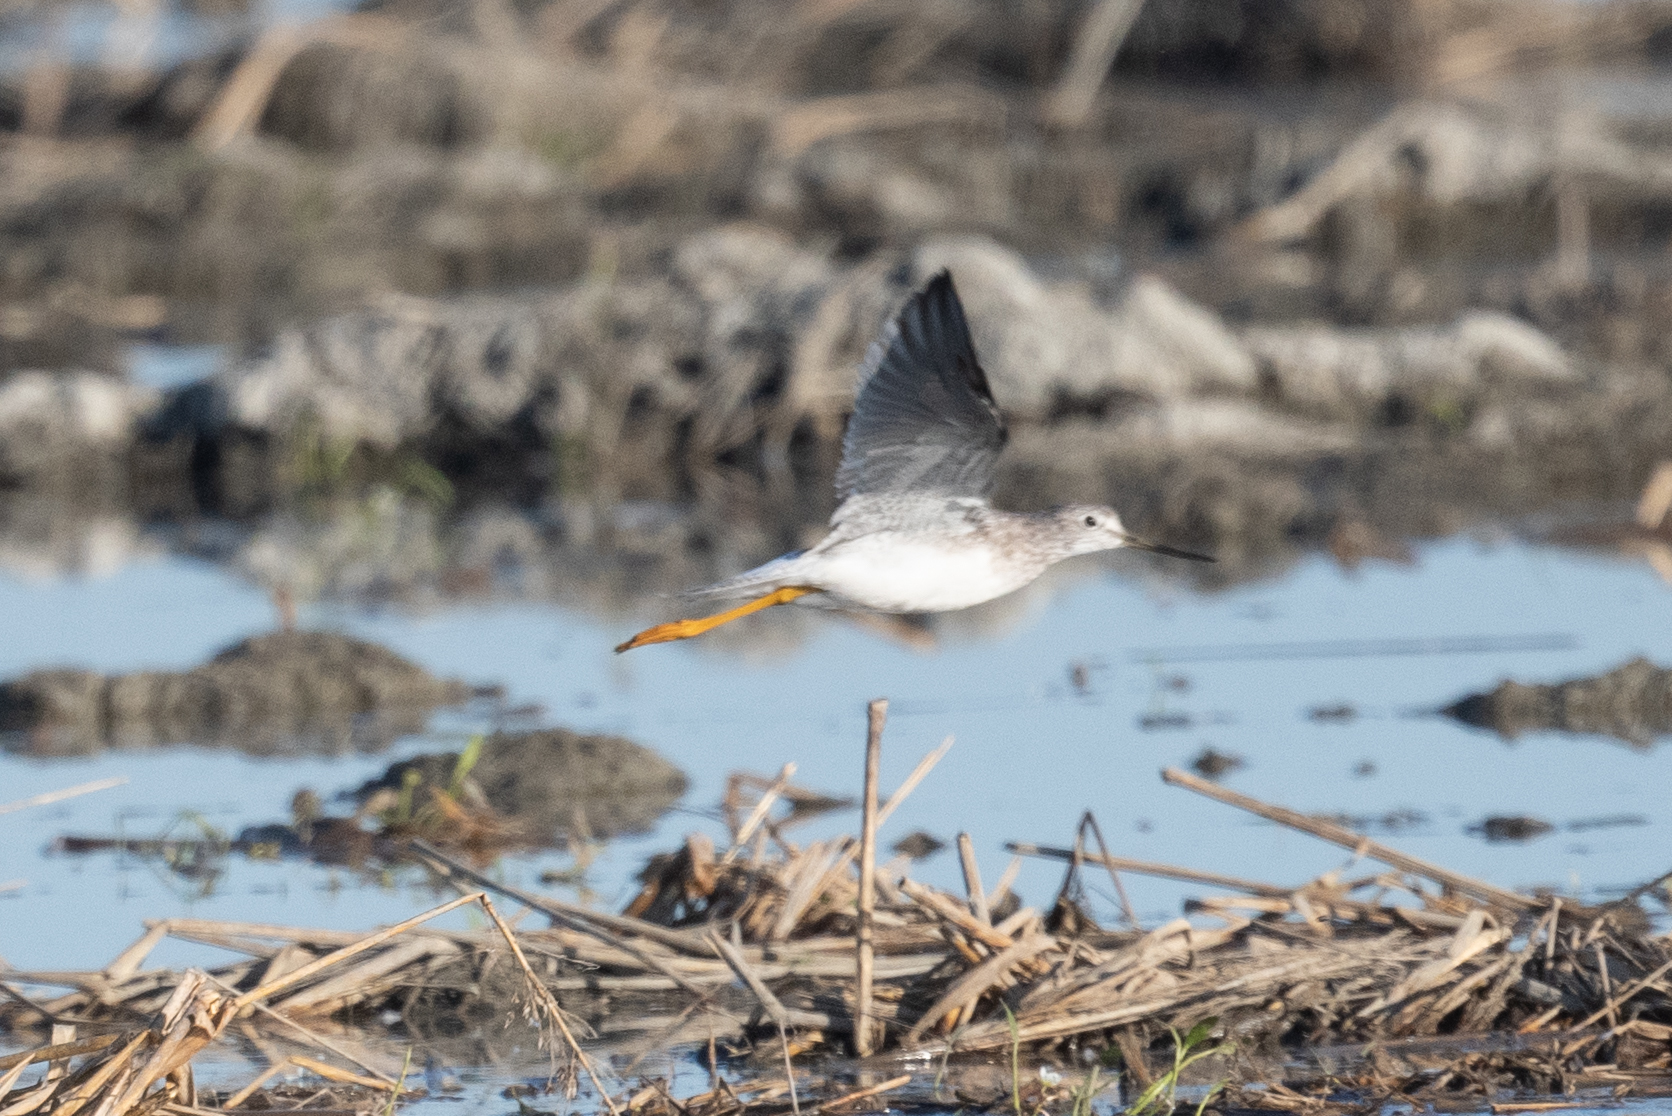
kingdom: Animalia
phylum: Chordata
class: Aves
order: Charadriiformes
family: Scolopacidae
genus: Tringa
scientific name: Tringa melanoleuca
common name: Greater yellowlegs
